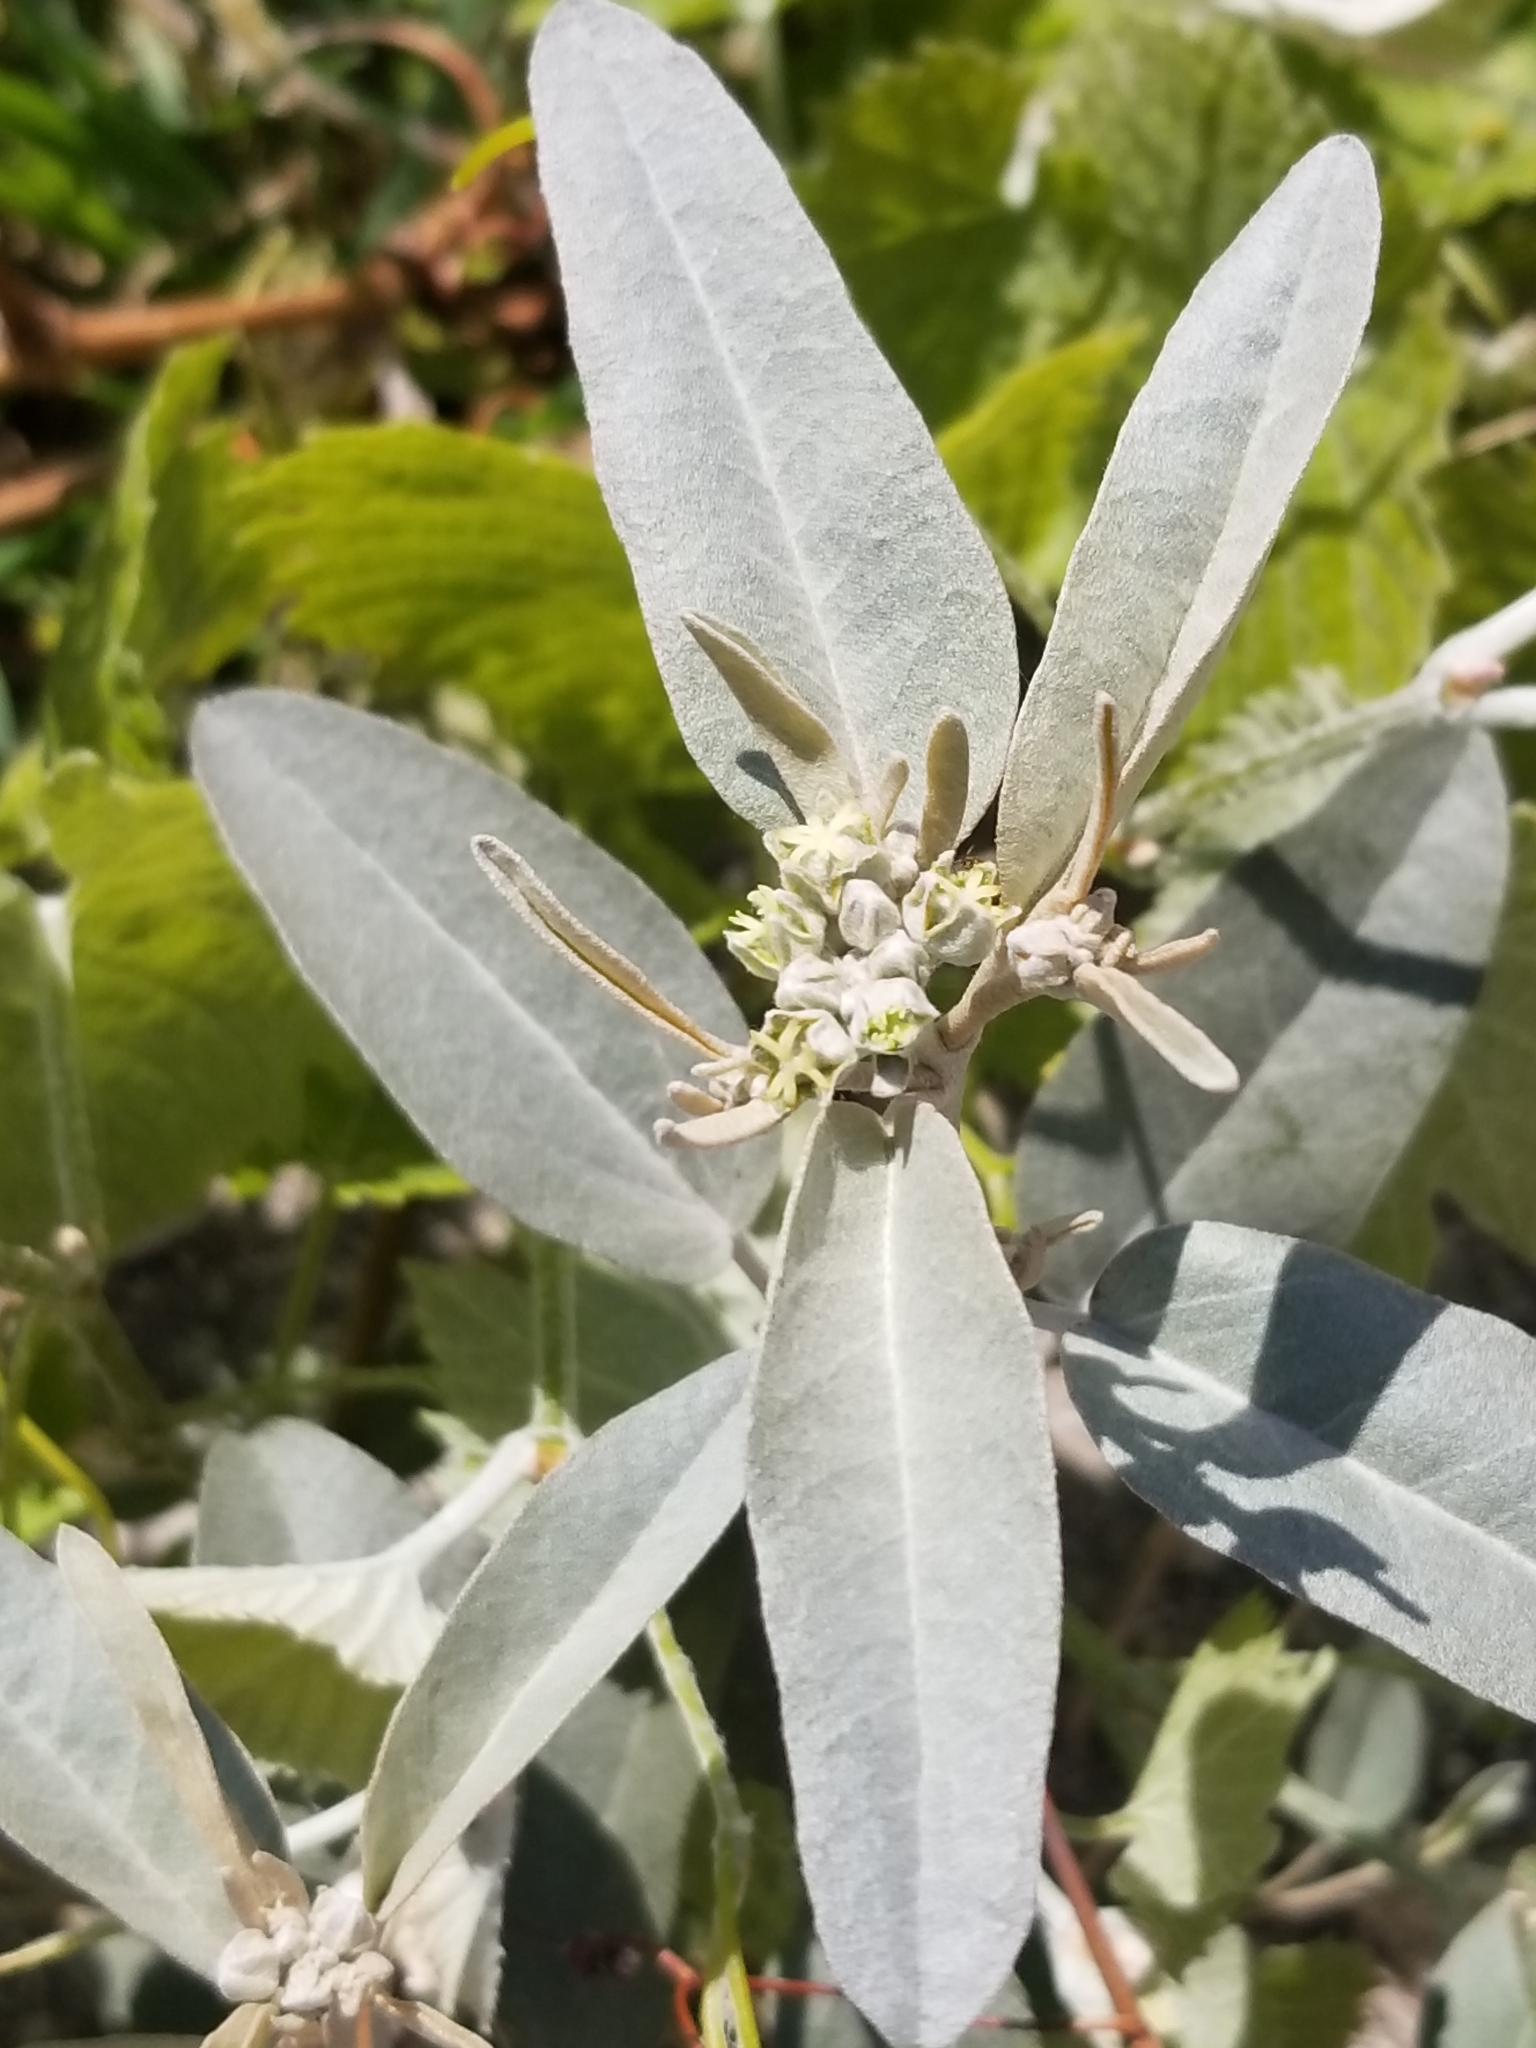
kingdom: Plantae
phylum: Tracheophyta
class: Magnoliopsida
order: Malpighiales
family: Euphorbiaceae
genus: Croton
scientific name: Croton californicus
